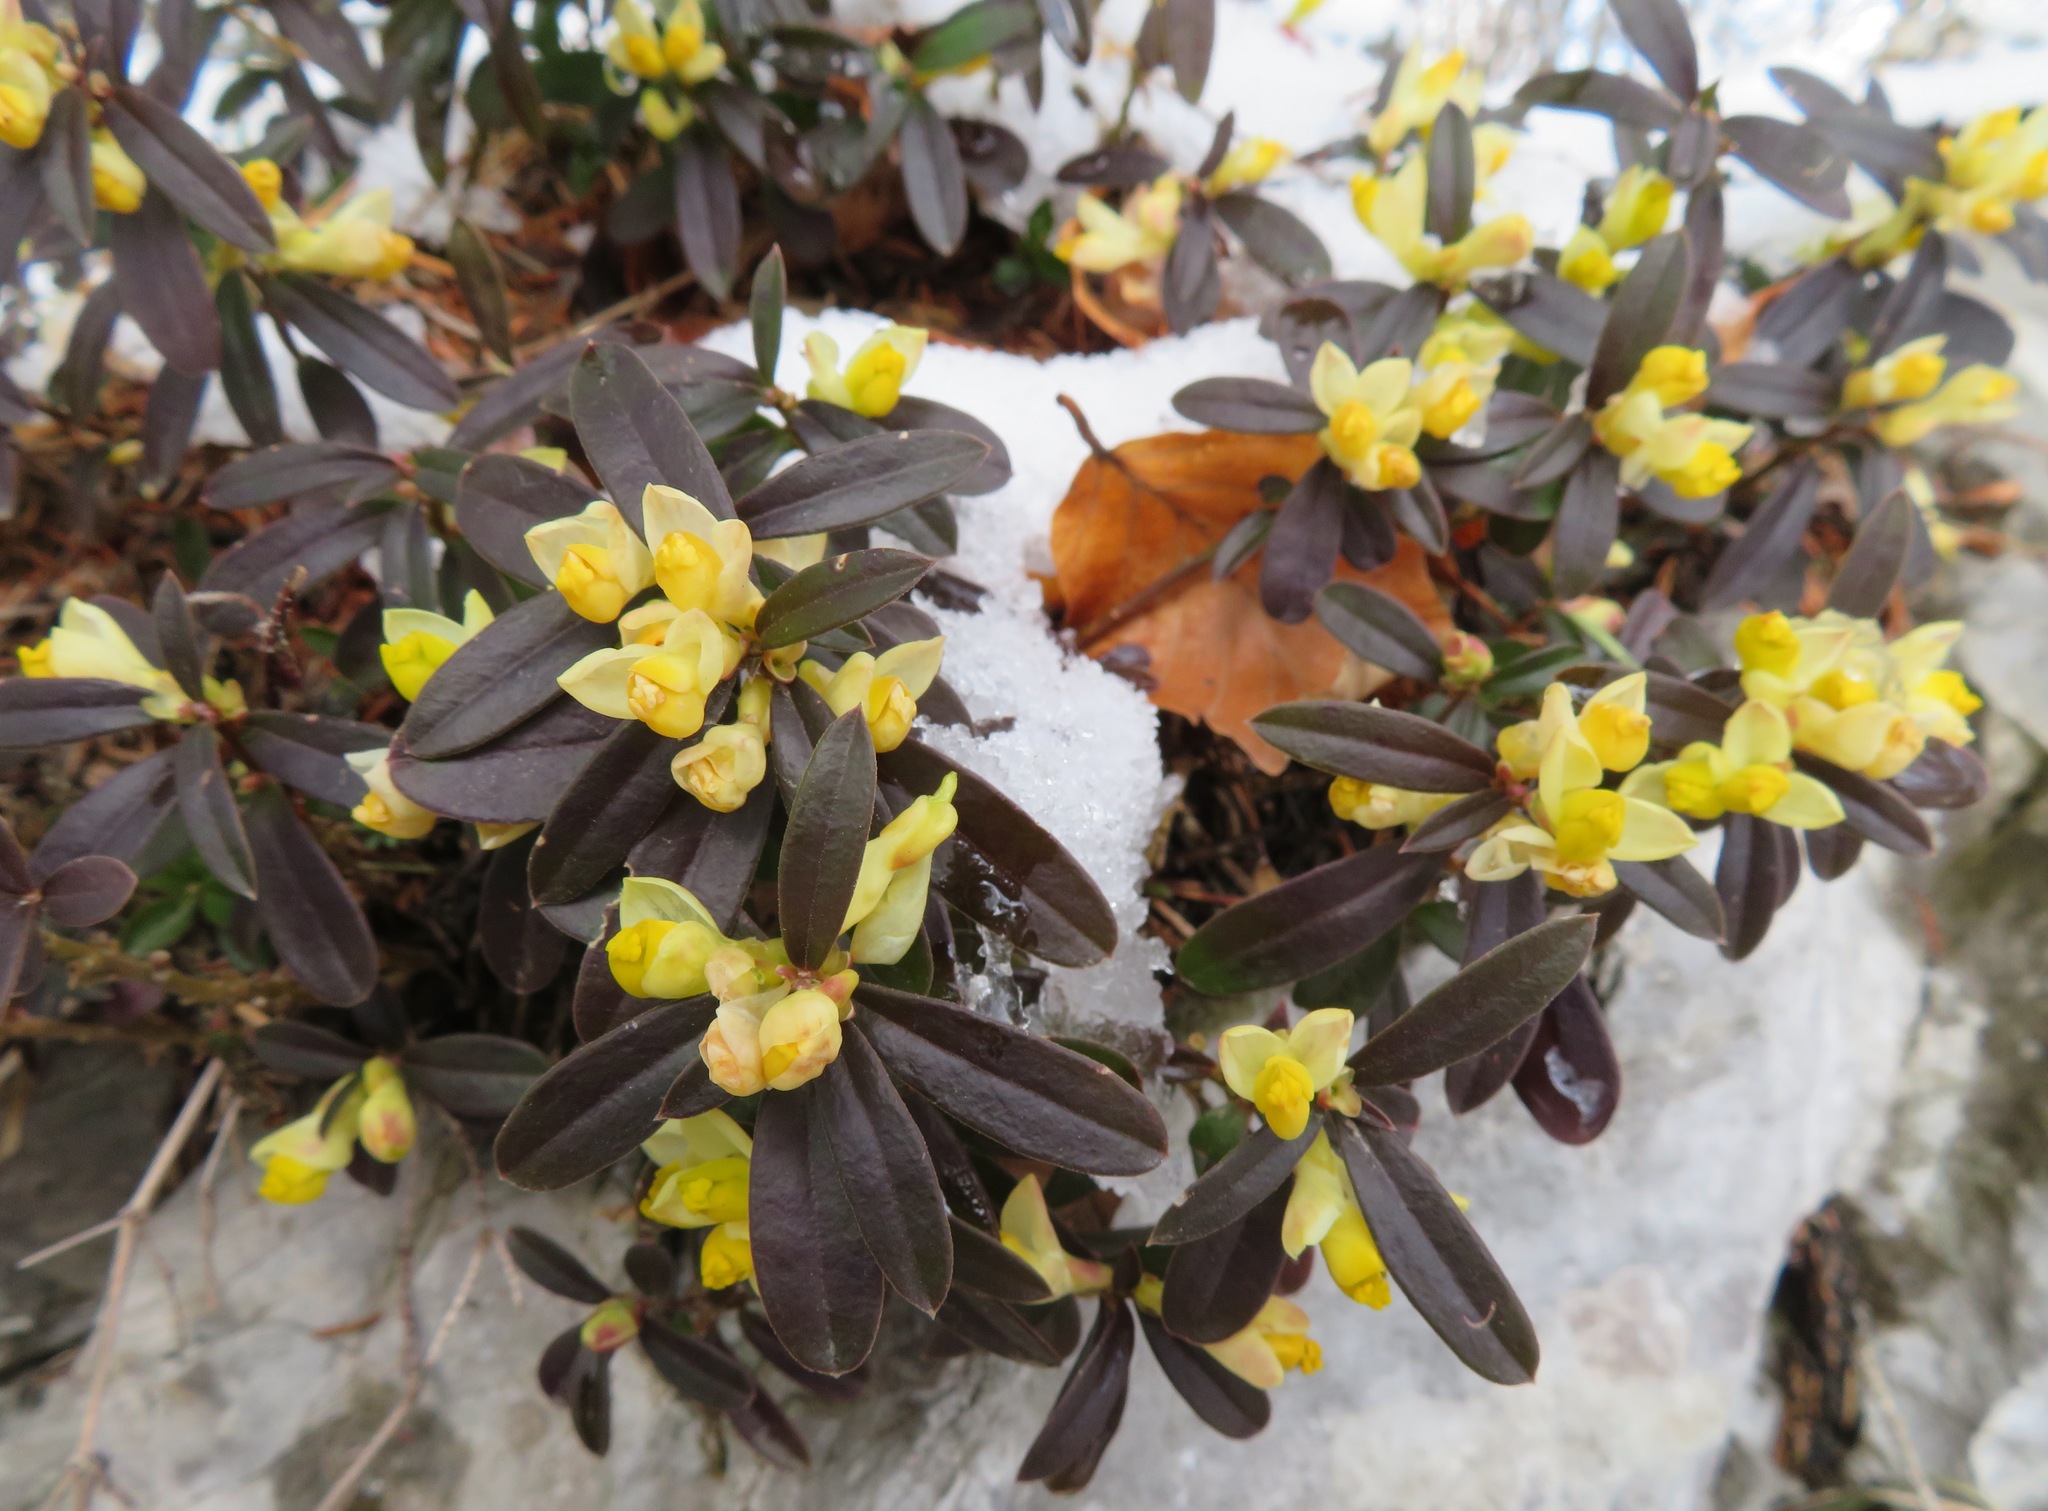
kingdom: Plantae
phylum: Tracheophyta
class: Magnoliopsida
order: Fabales
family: Polygalaceae
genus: Polygaloides
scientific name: Polygaloides chamaebuxus
